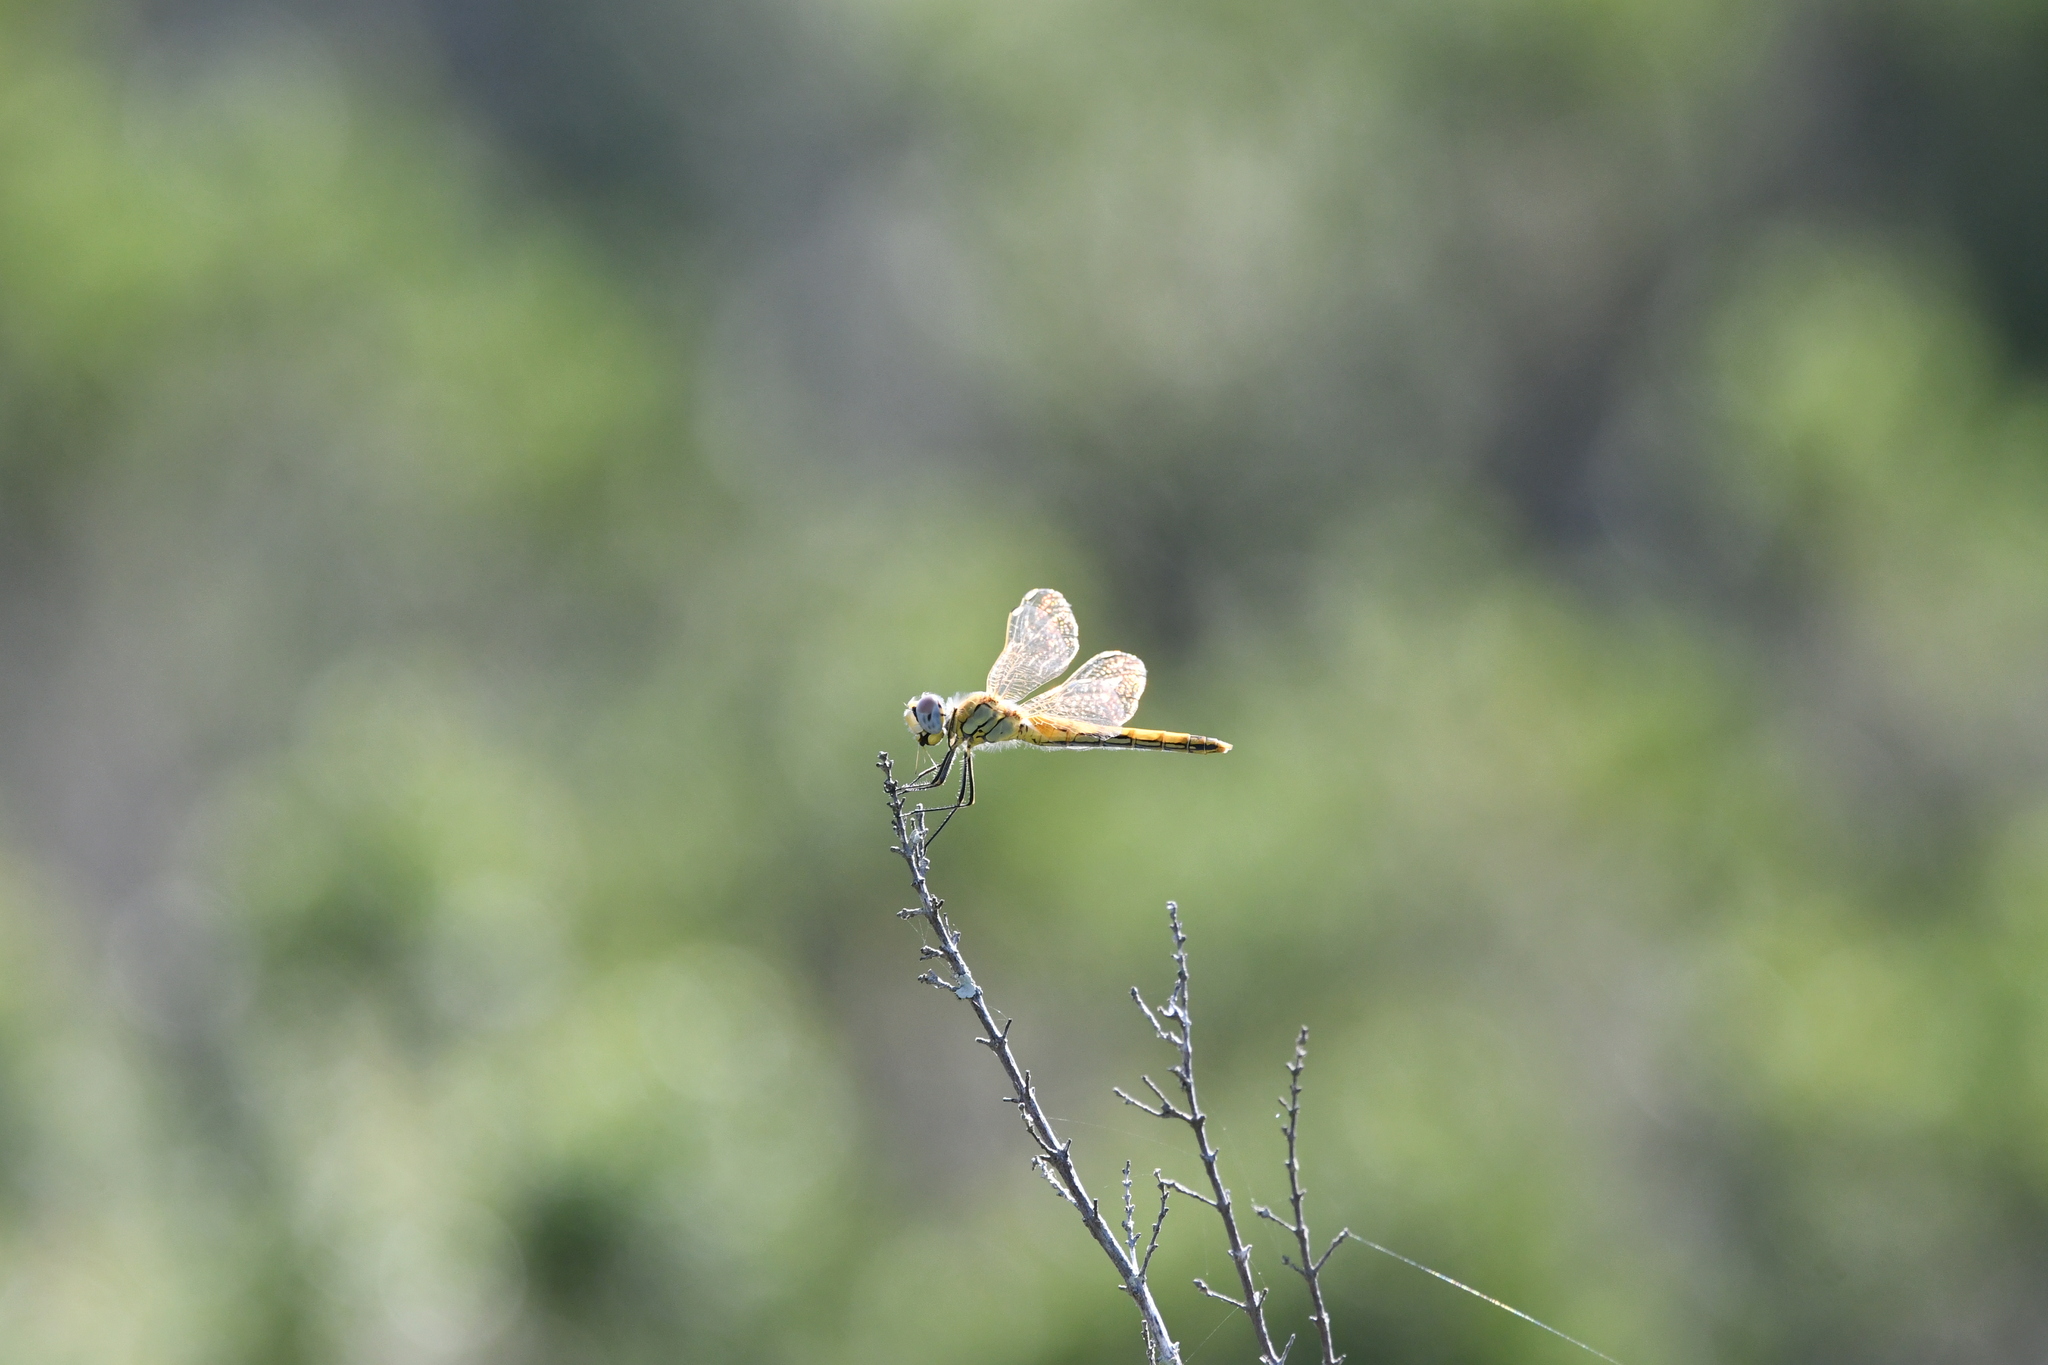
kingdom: Animalia
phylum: Arthropoda
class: Insecta
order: Odonata
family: Libellulidae
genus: Sympetrum
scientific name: Sympetrum fonscolombii
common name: Red-veined darter
